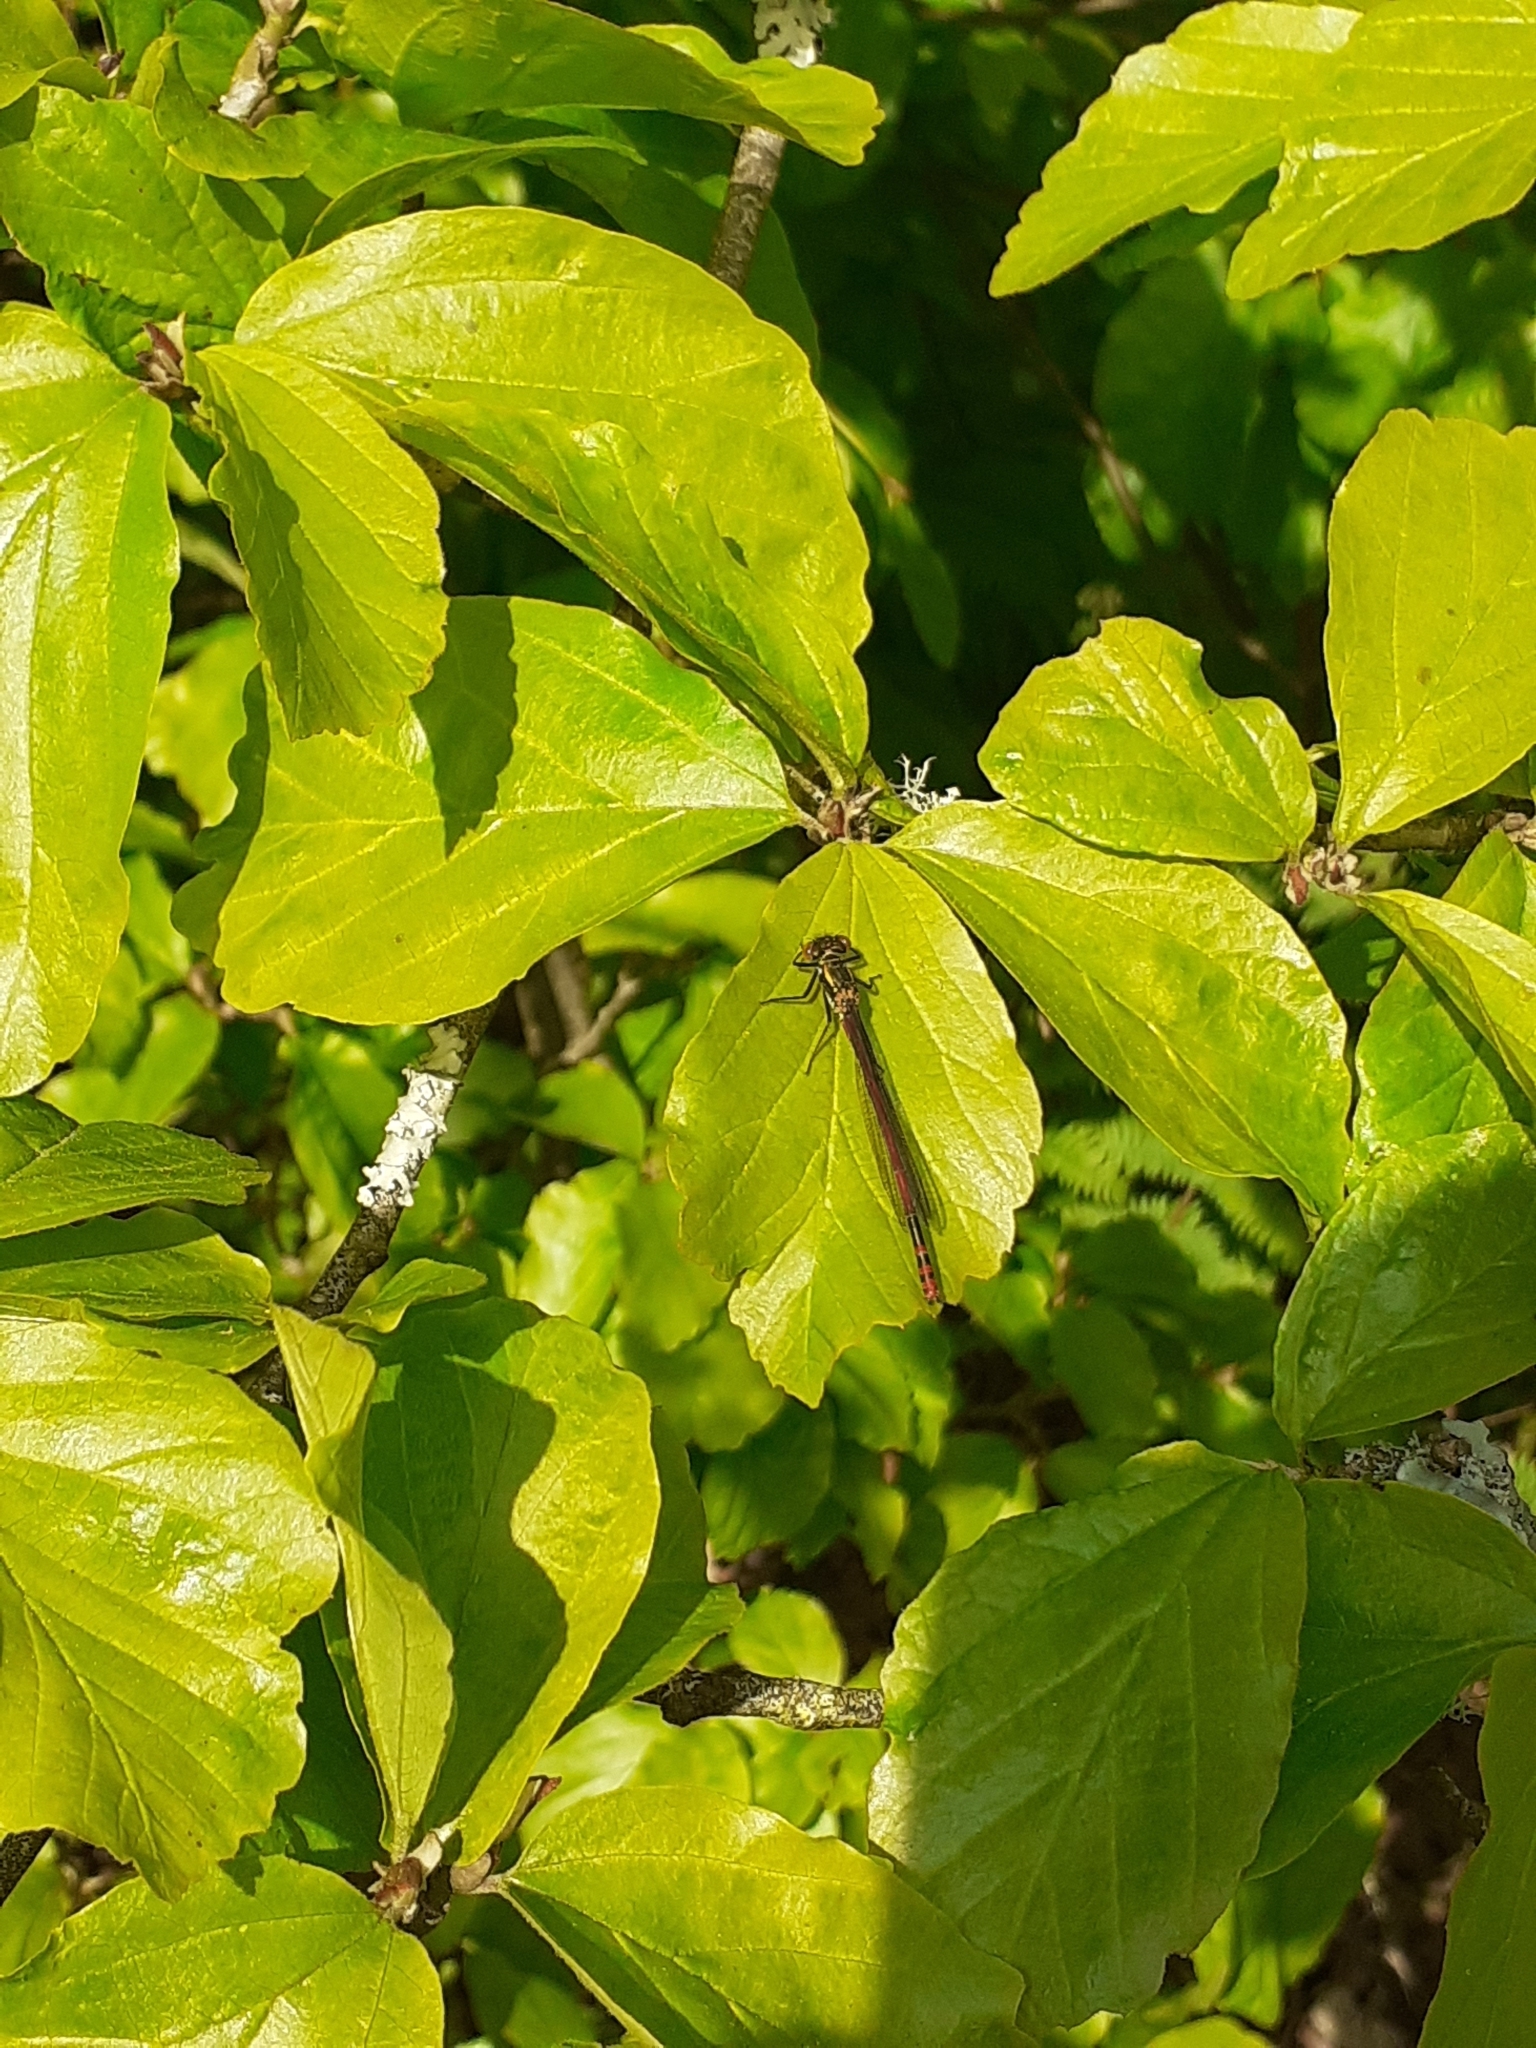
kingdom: Animalia
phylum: Arthropoda
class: Insecta
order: Odonata
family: Coenagrionidae
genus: Pyrrhosoma
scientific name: Pyrrhosoma nymphula
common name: Large red damsel
